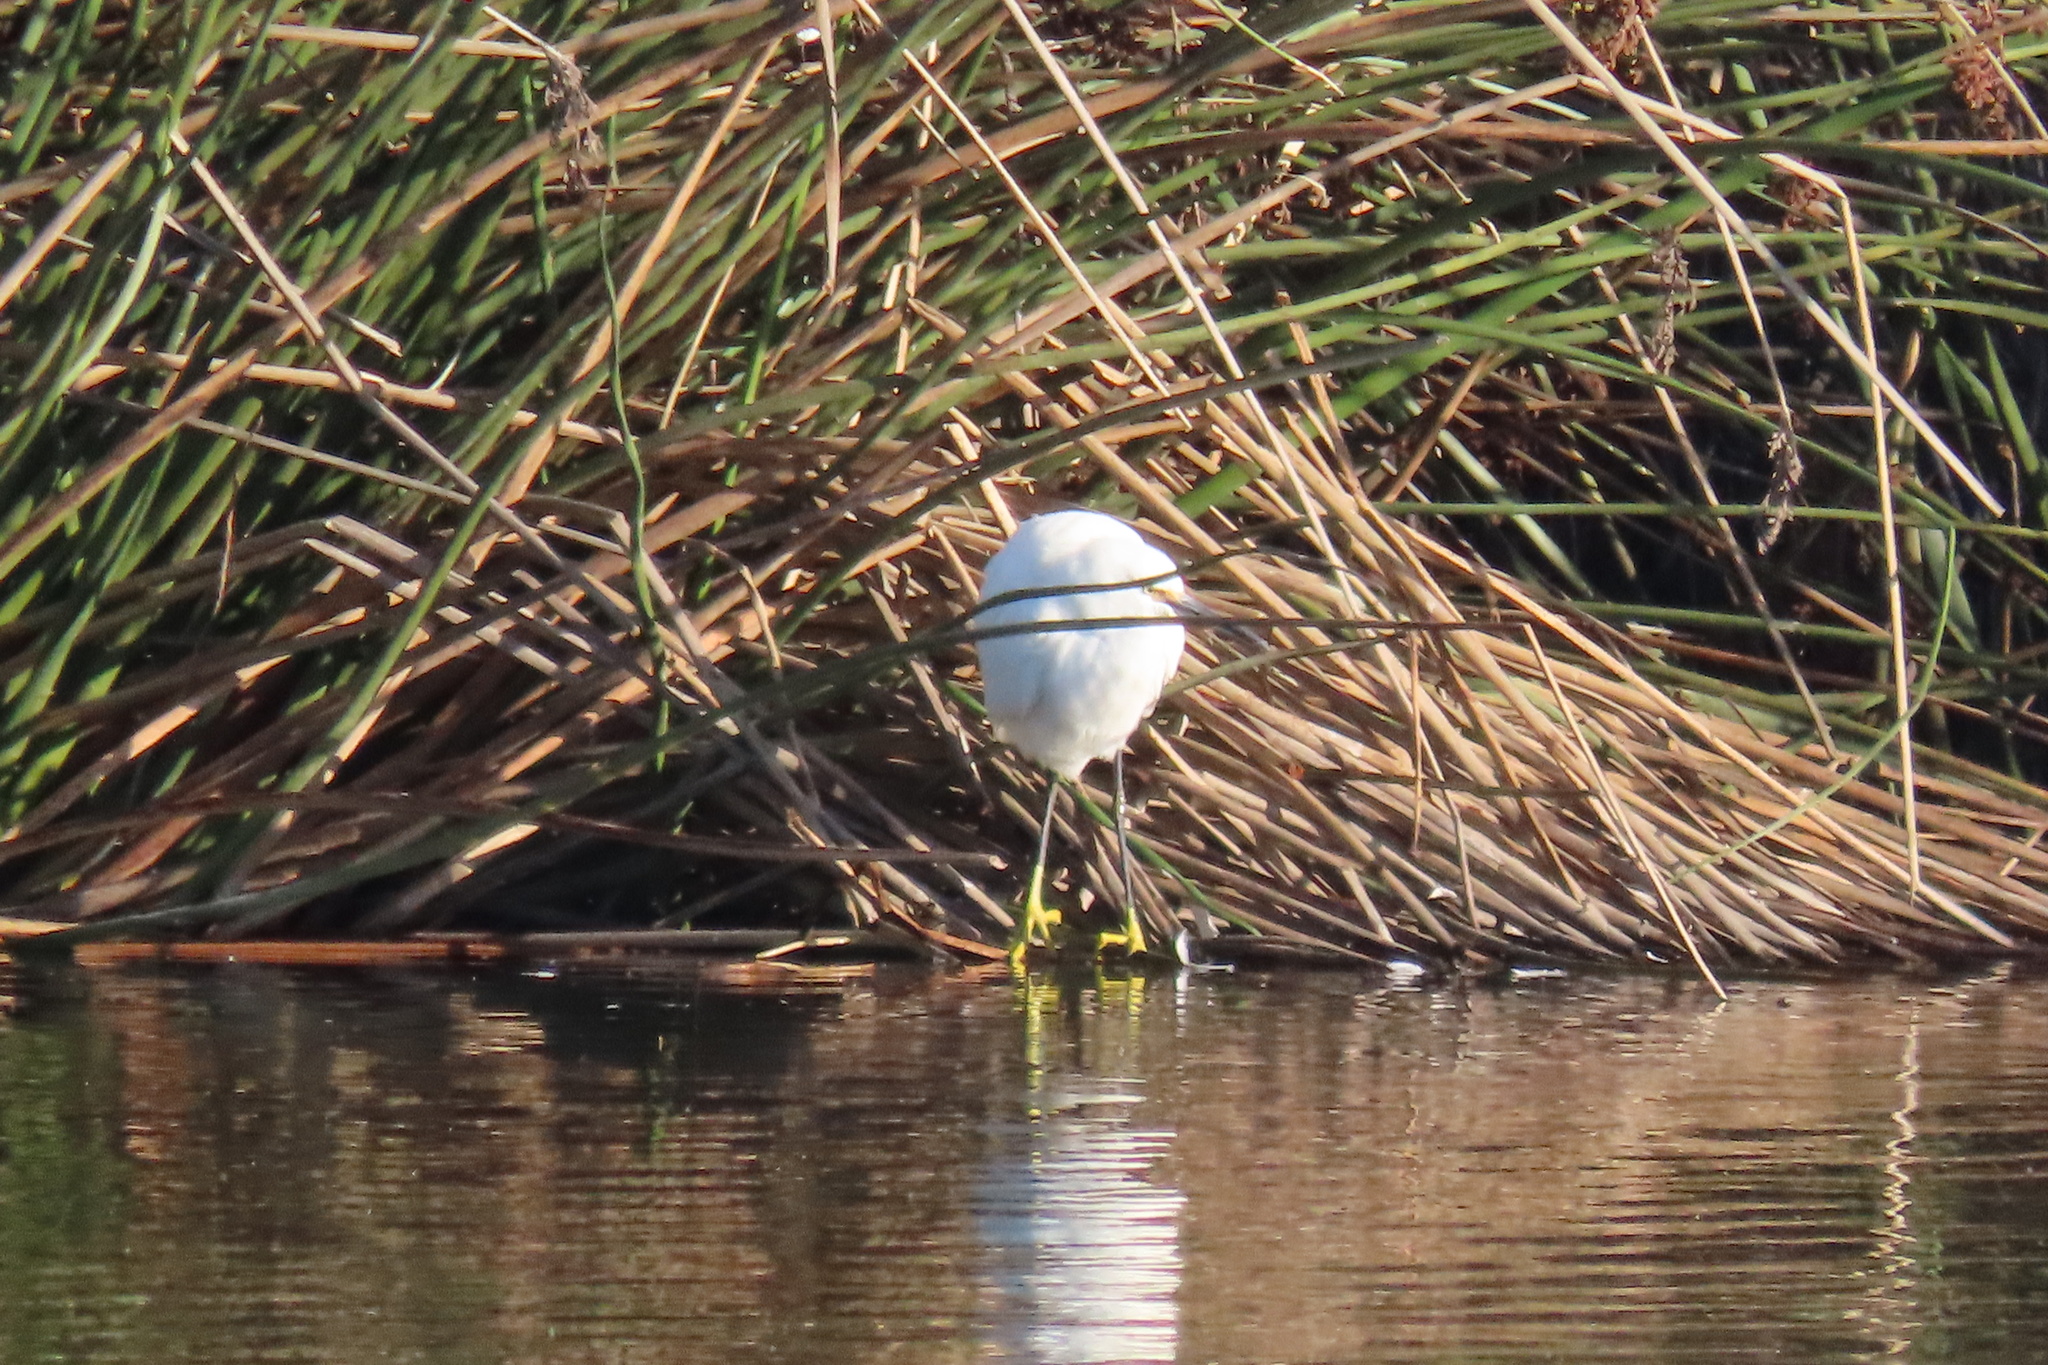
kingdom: Animalia
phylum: Chordata
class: Aves
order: Pelecaniformes
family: Ardeidae
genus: Egretta
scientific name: Egretta thula
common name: Snowy egret
